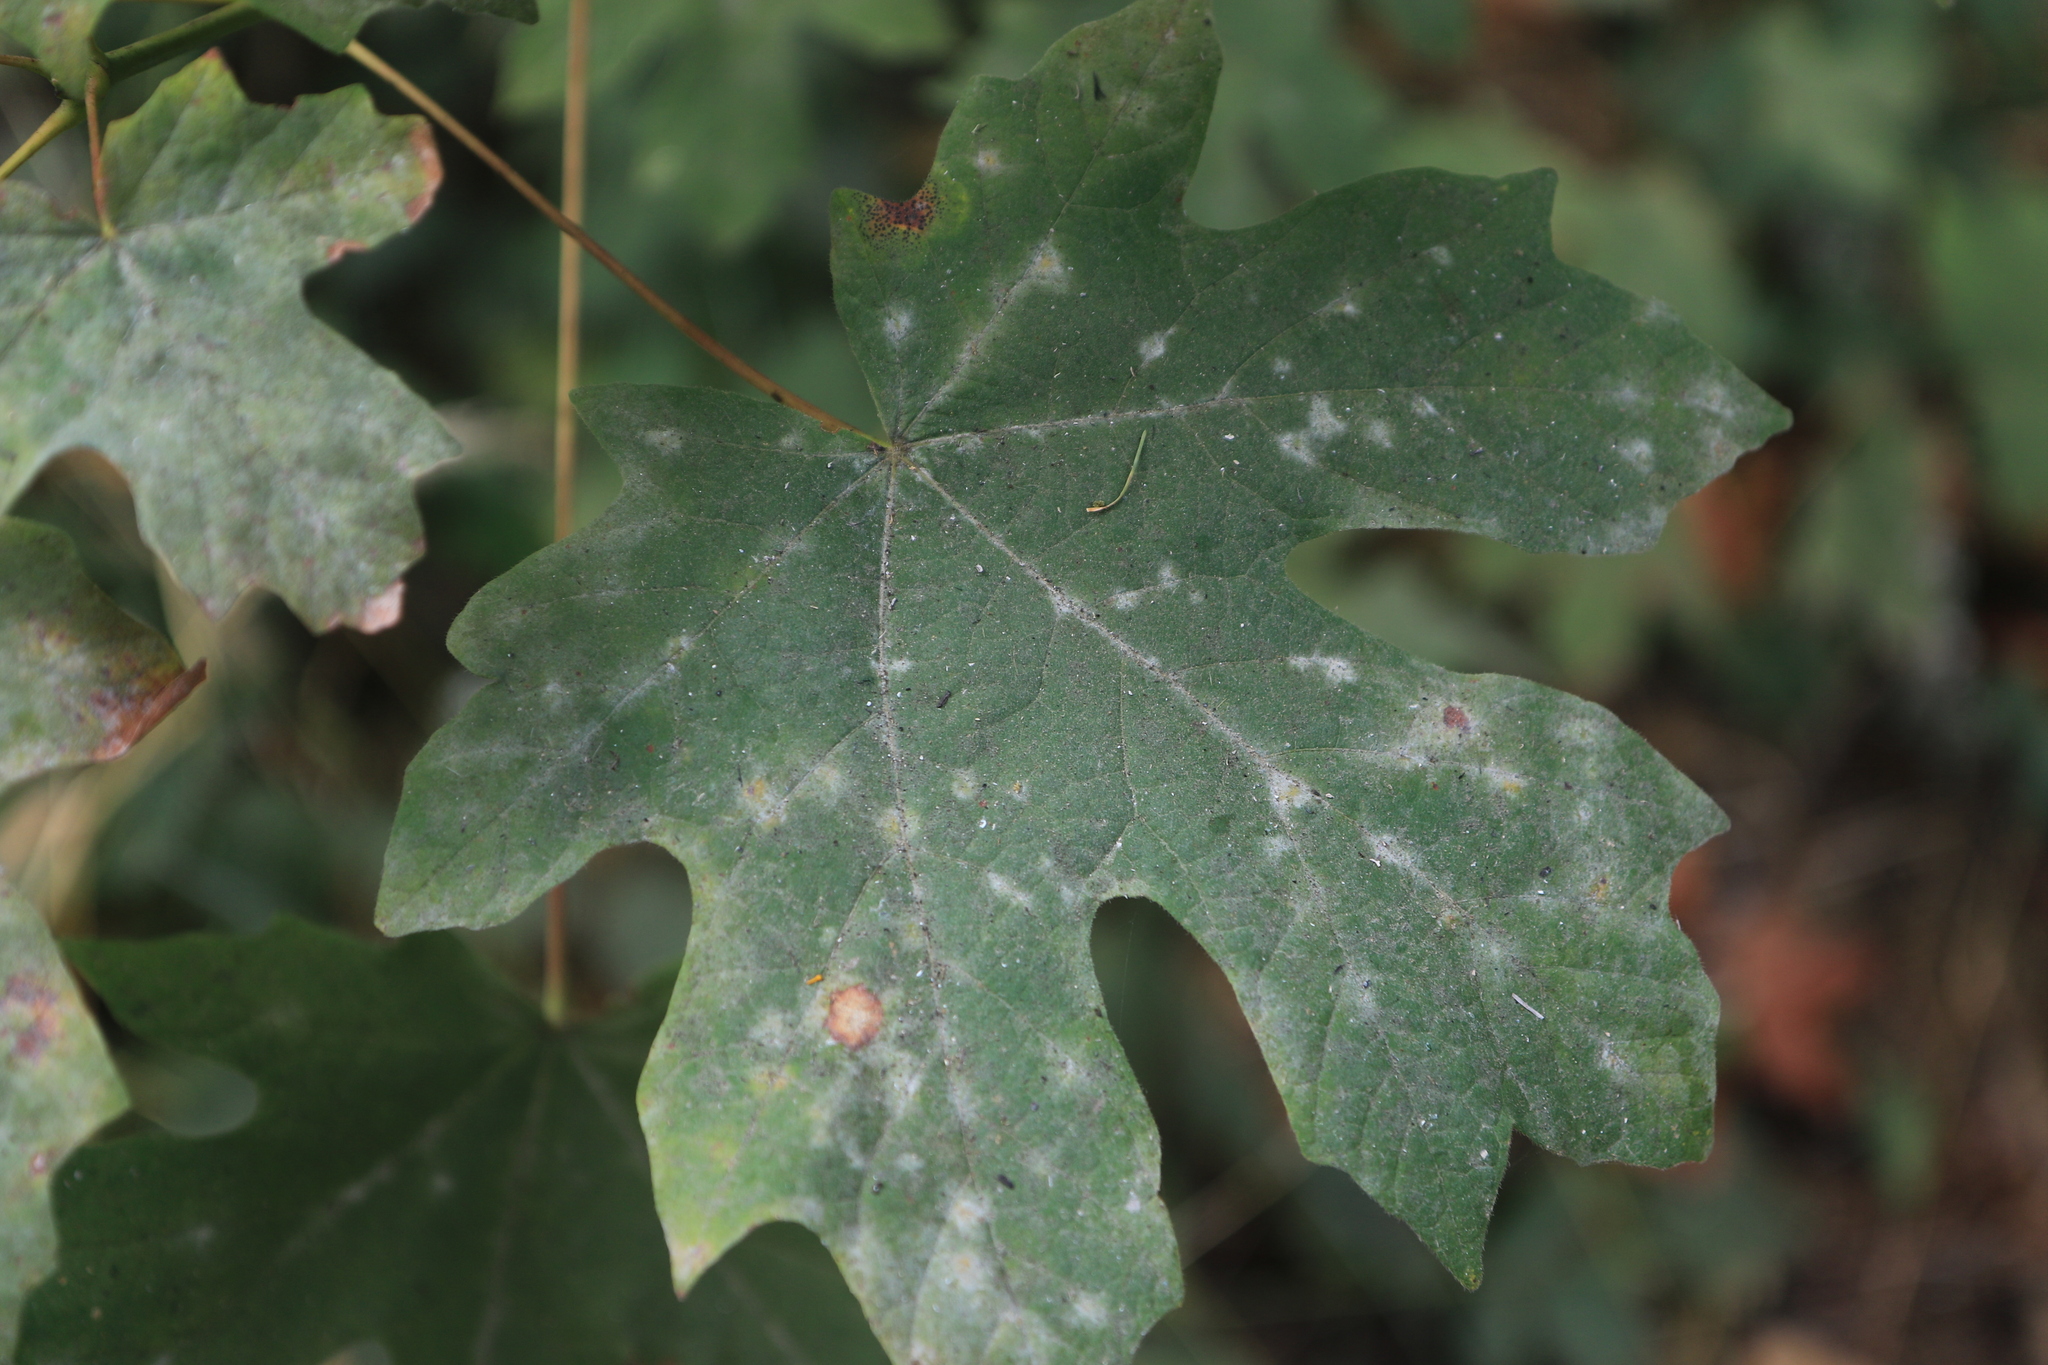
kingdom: Fungi
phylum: Ascomycota
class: Leotiomycetes
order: Helotiales
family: Erysiphaceae
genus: Sawadaea
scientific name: Sawadaea bicornis
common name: Maple mildew
